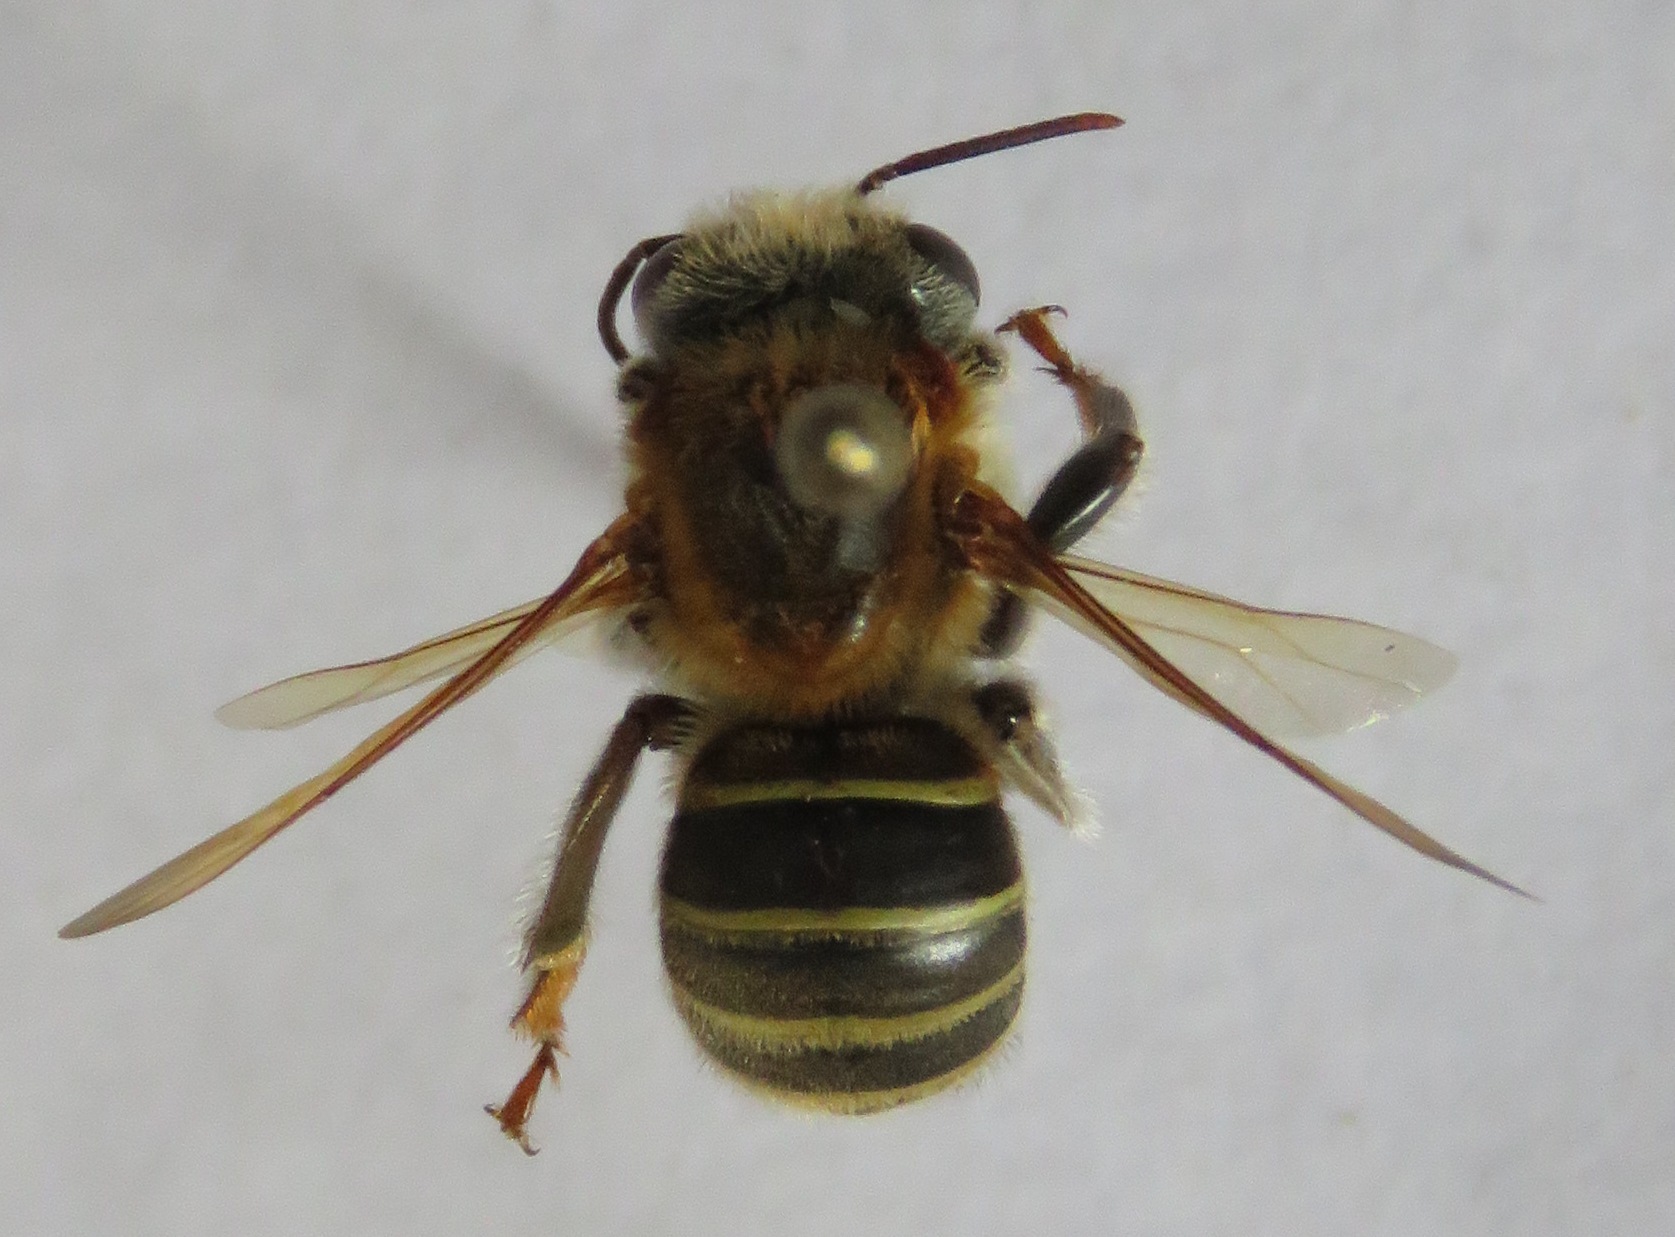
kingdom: Animalia
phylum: Arthropoda
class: Insecta
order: Hymenoptera
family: Apidae
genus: Melipona
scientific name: Melipona beecheii
